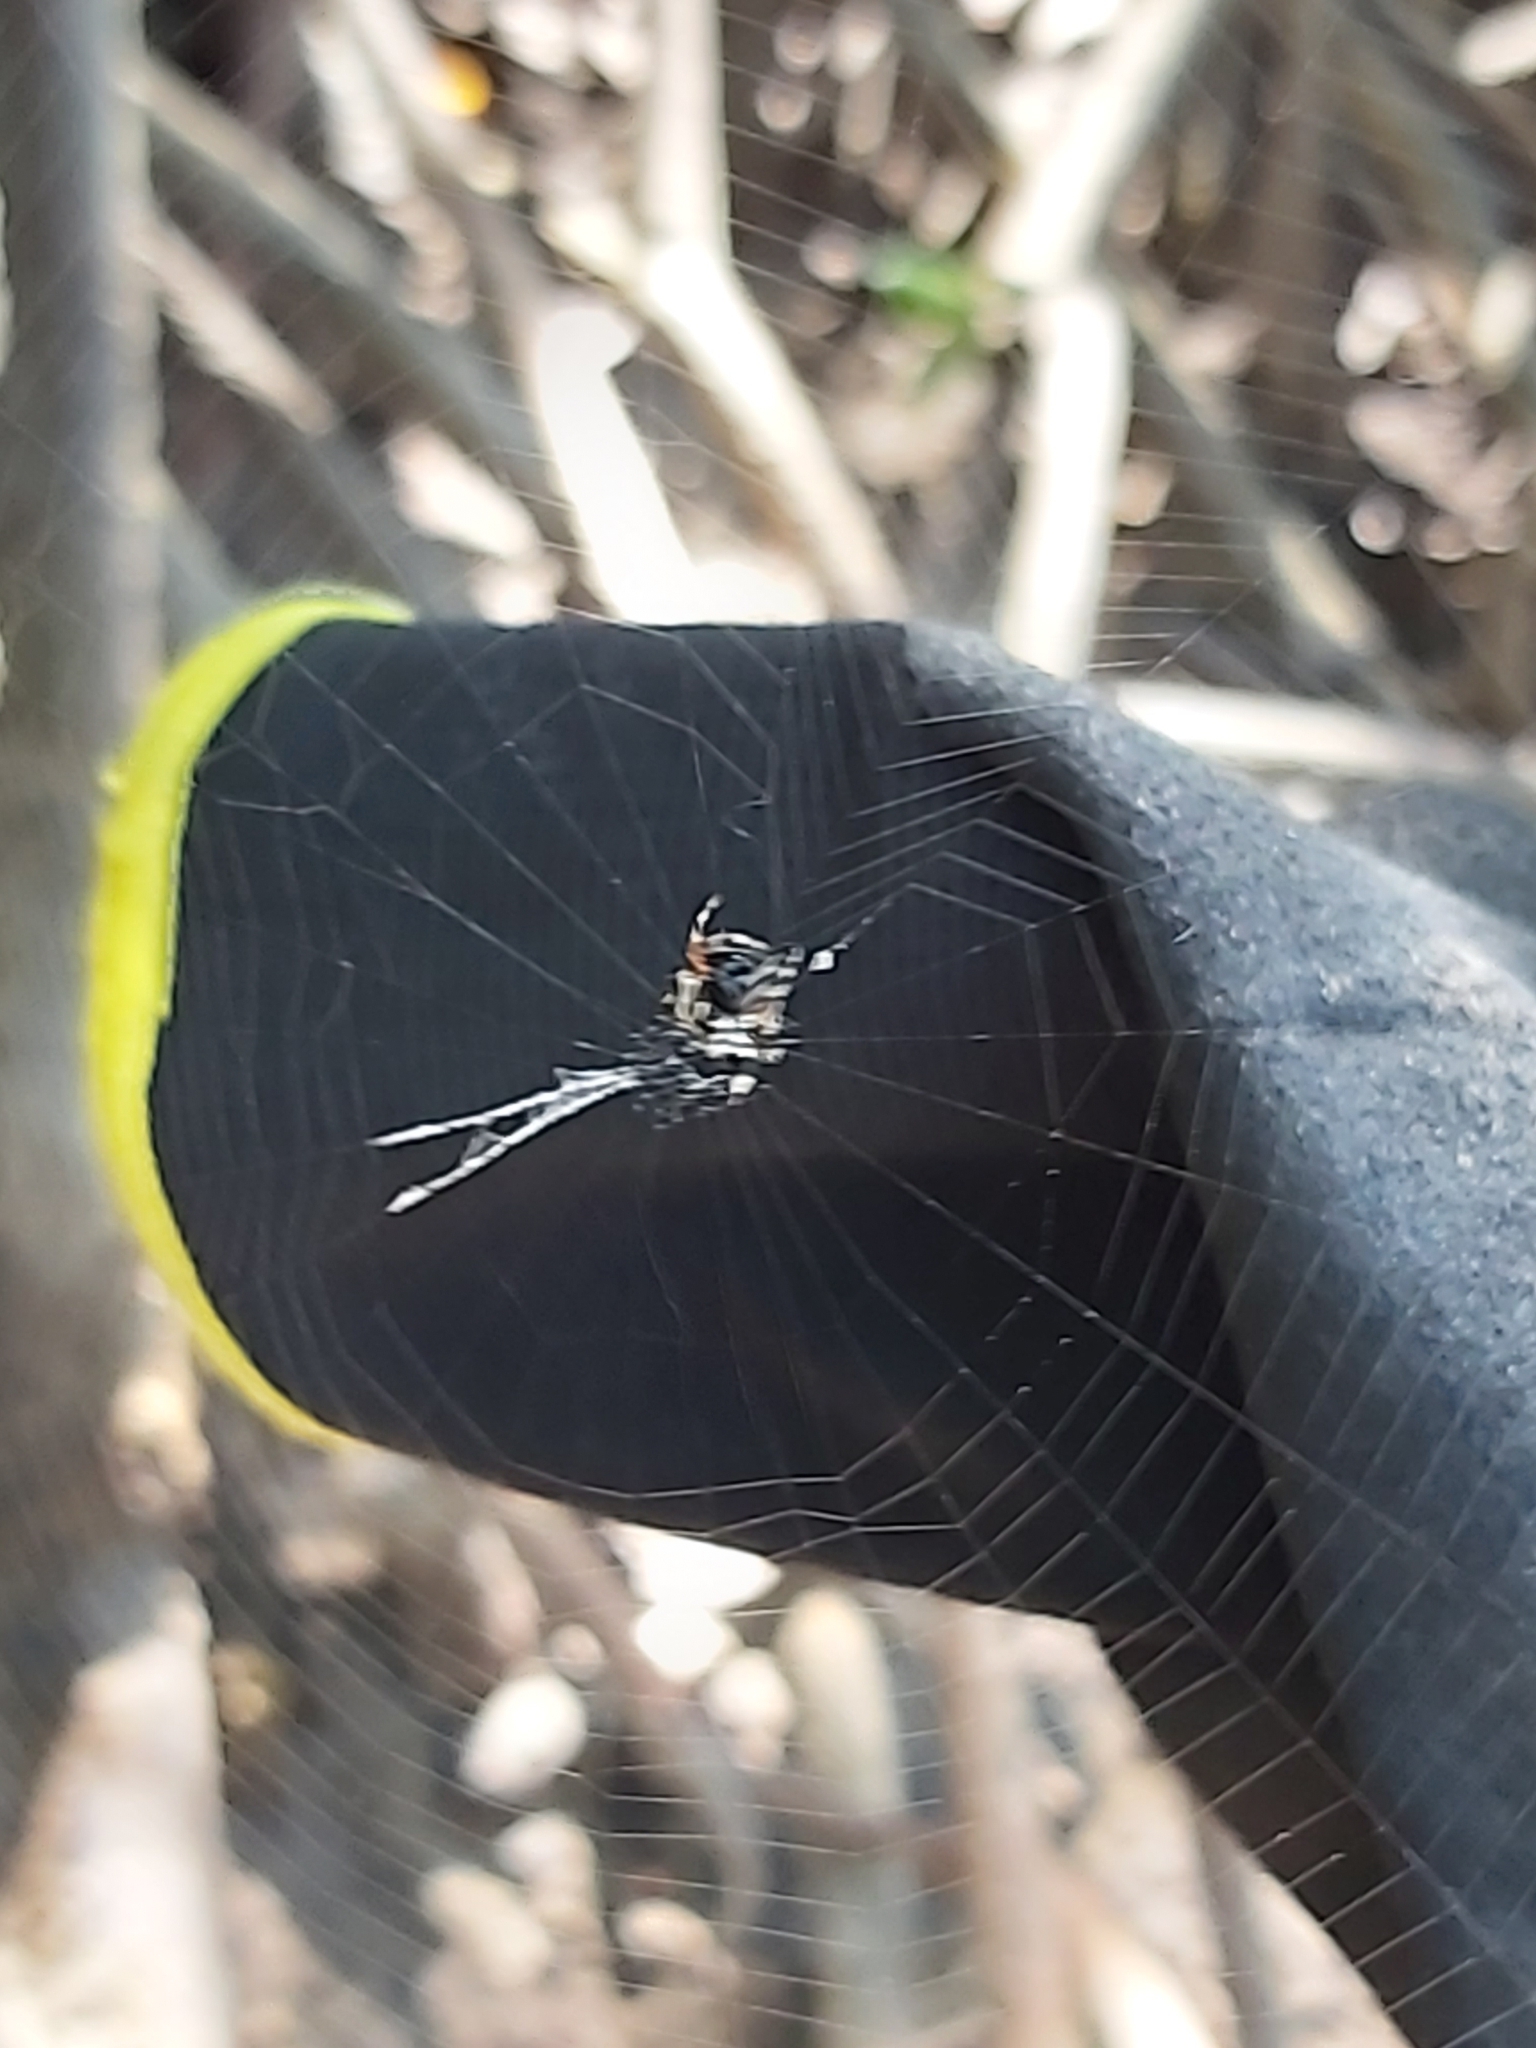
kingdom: Animalia
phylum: Arthropoda
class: Arachnida
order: Araneae
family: Araneidae
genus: Gasteracantha
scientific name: Gasteracantha sacerdotalis
